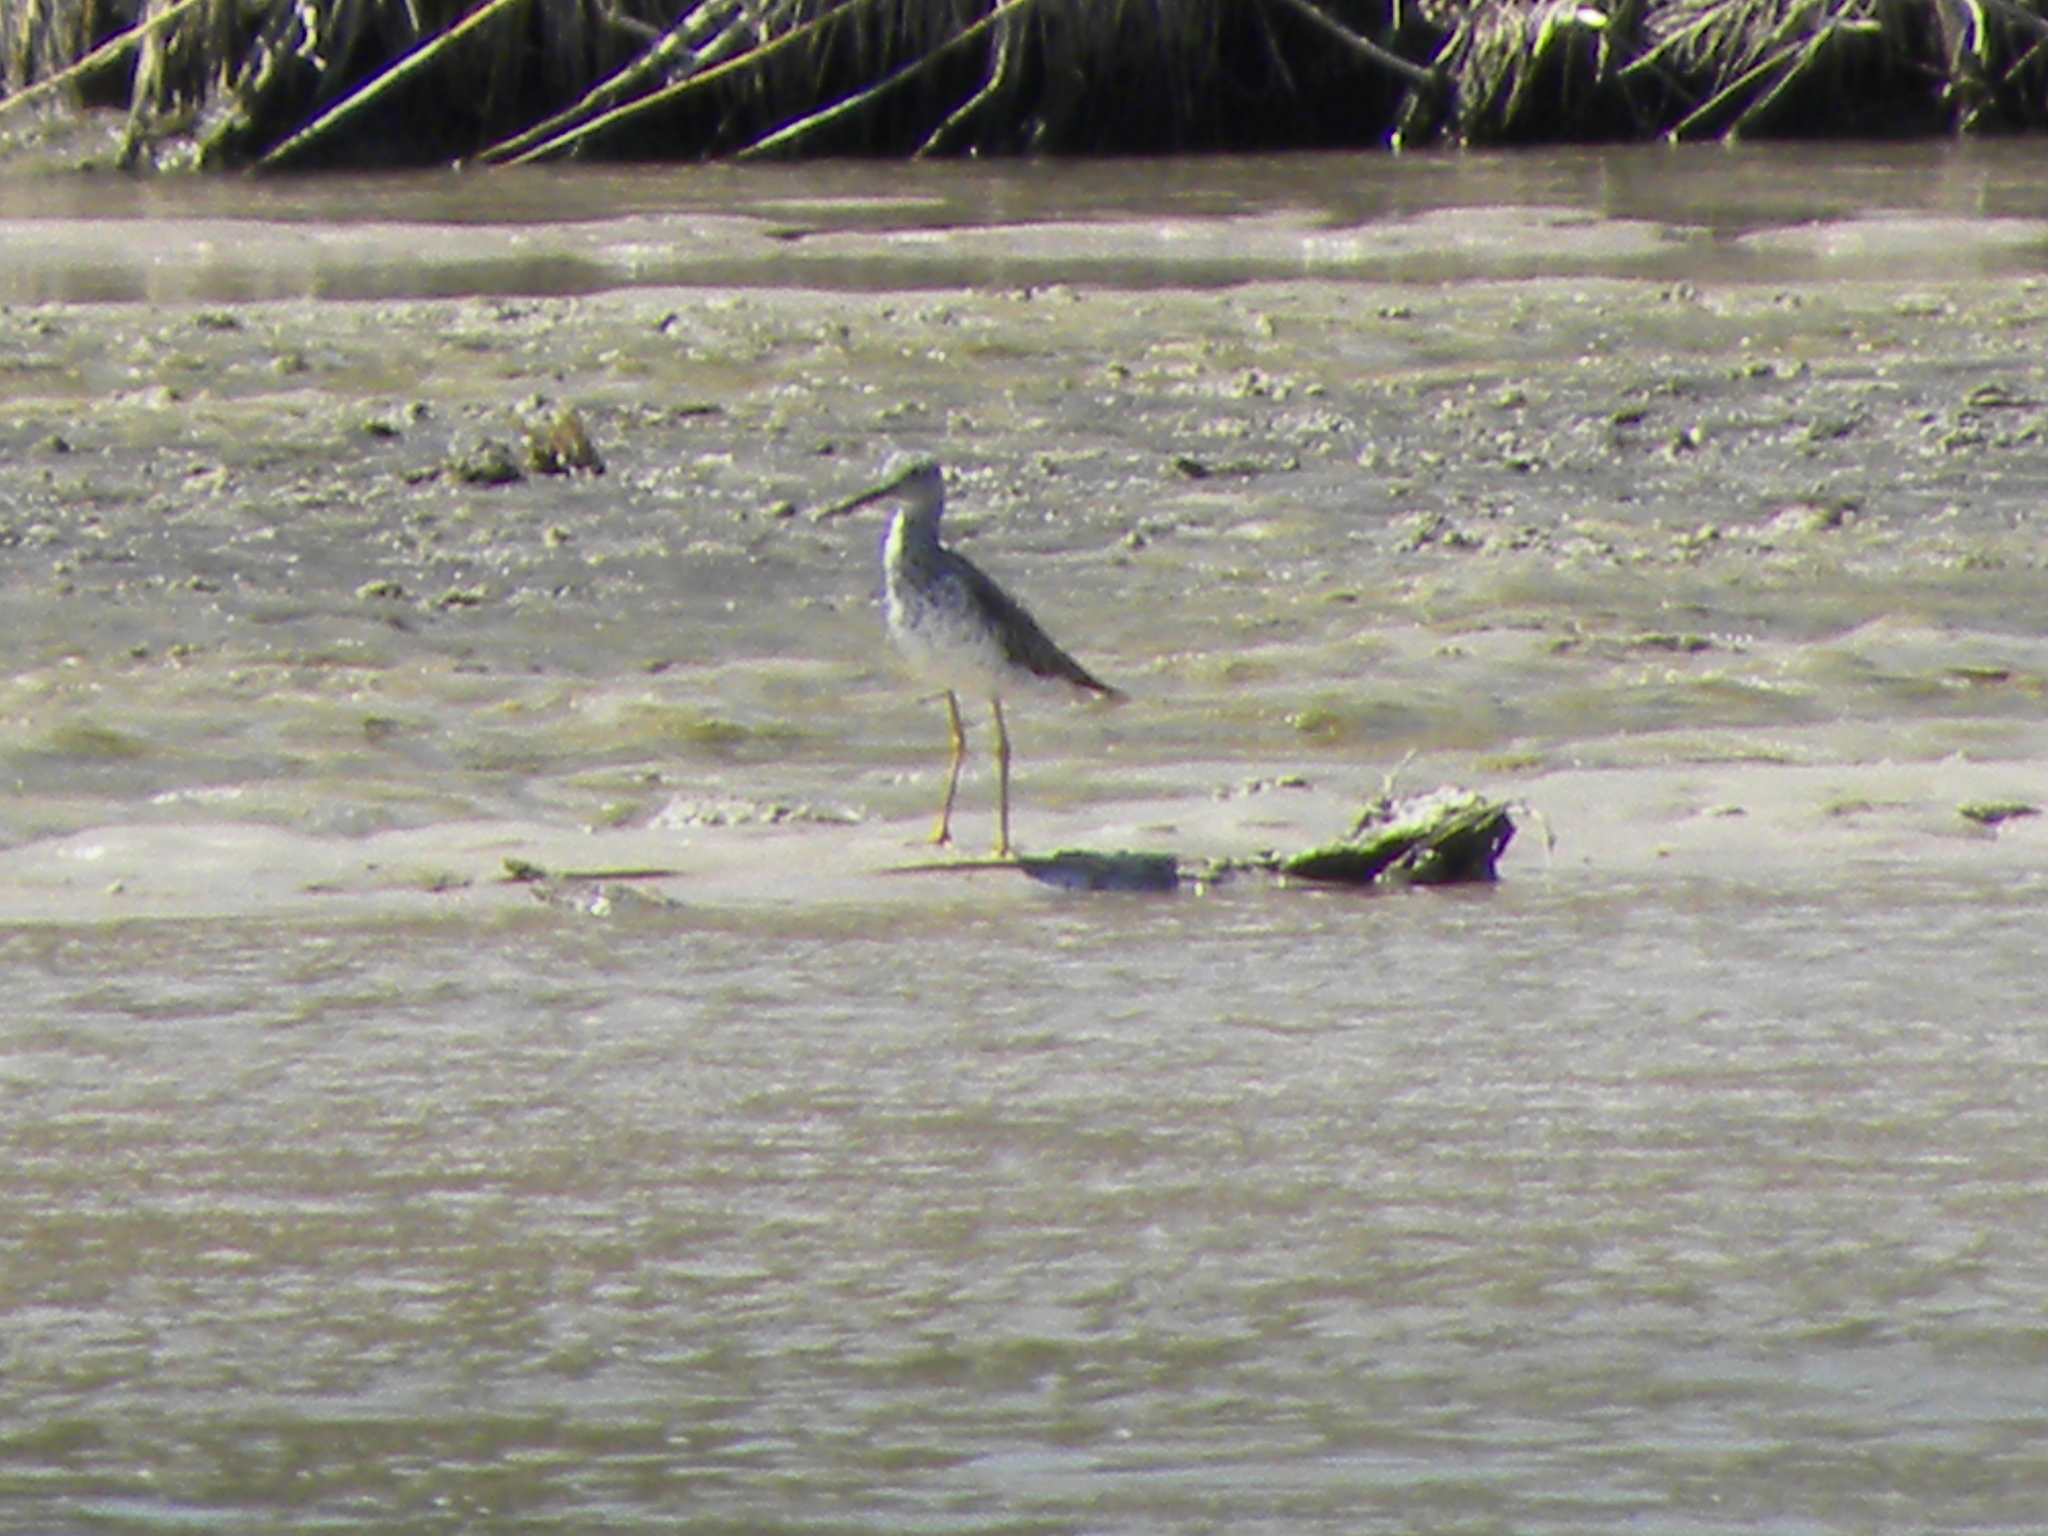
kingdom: Animalia
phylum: Chordata
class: Aves
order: Charadriiformes
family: Scolopacidae
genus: Tringa
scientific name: Tringa melanoleuca
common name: Greater yellowlegs
